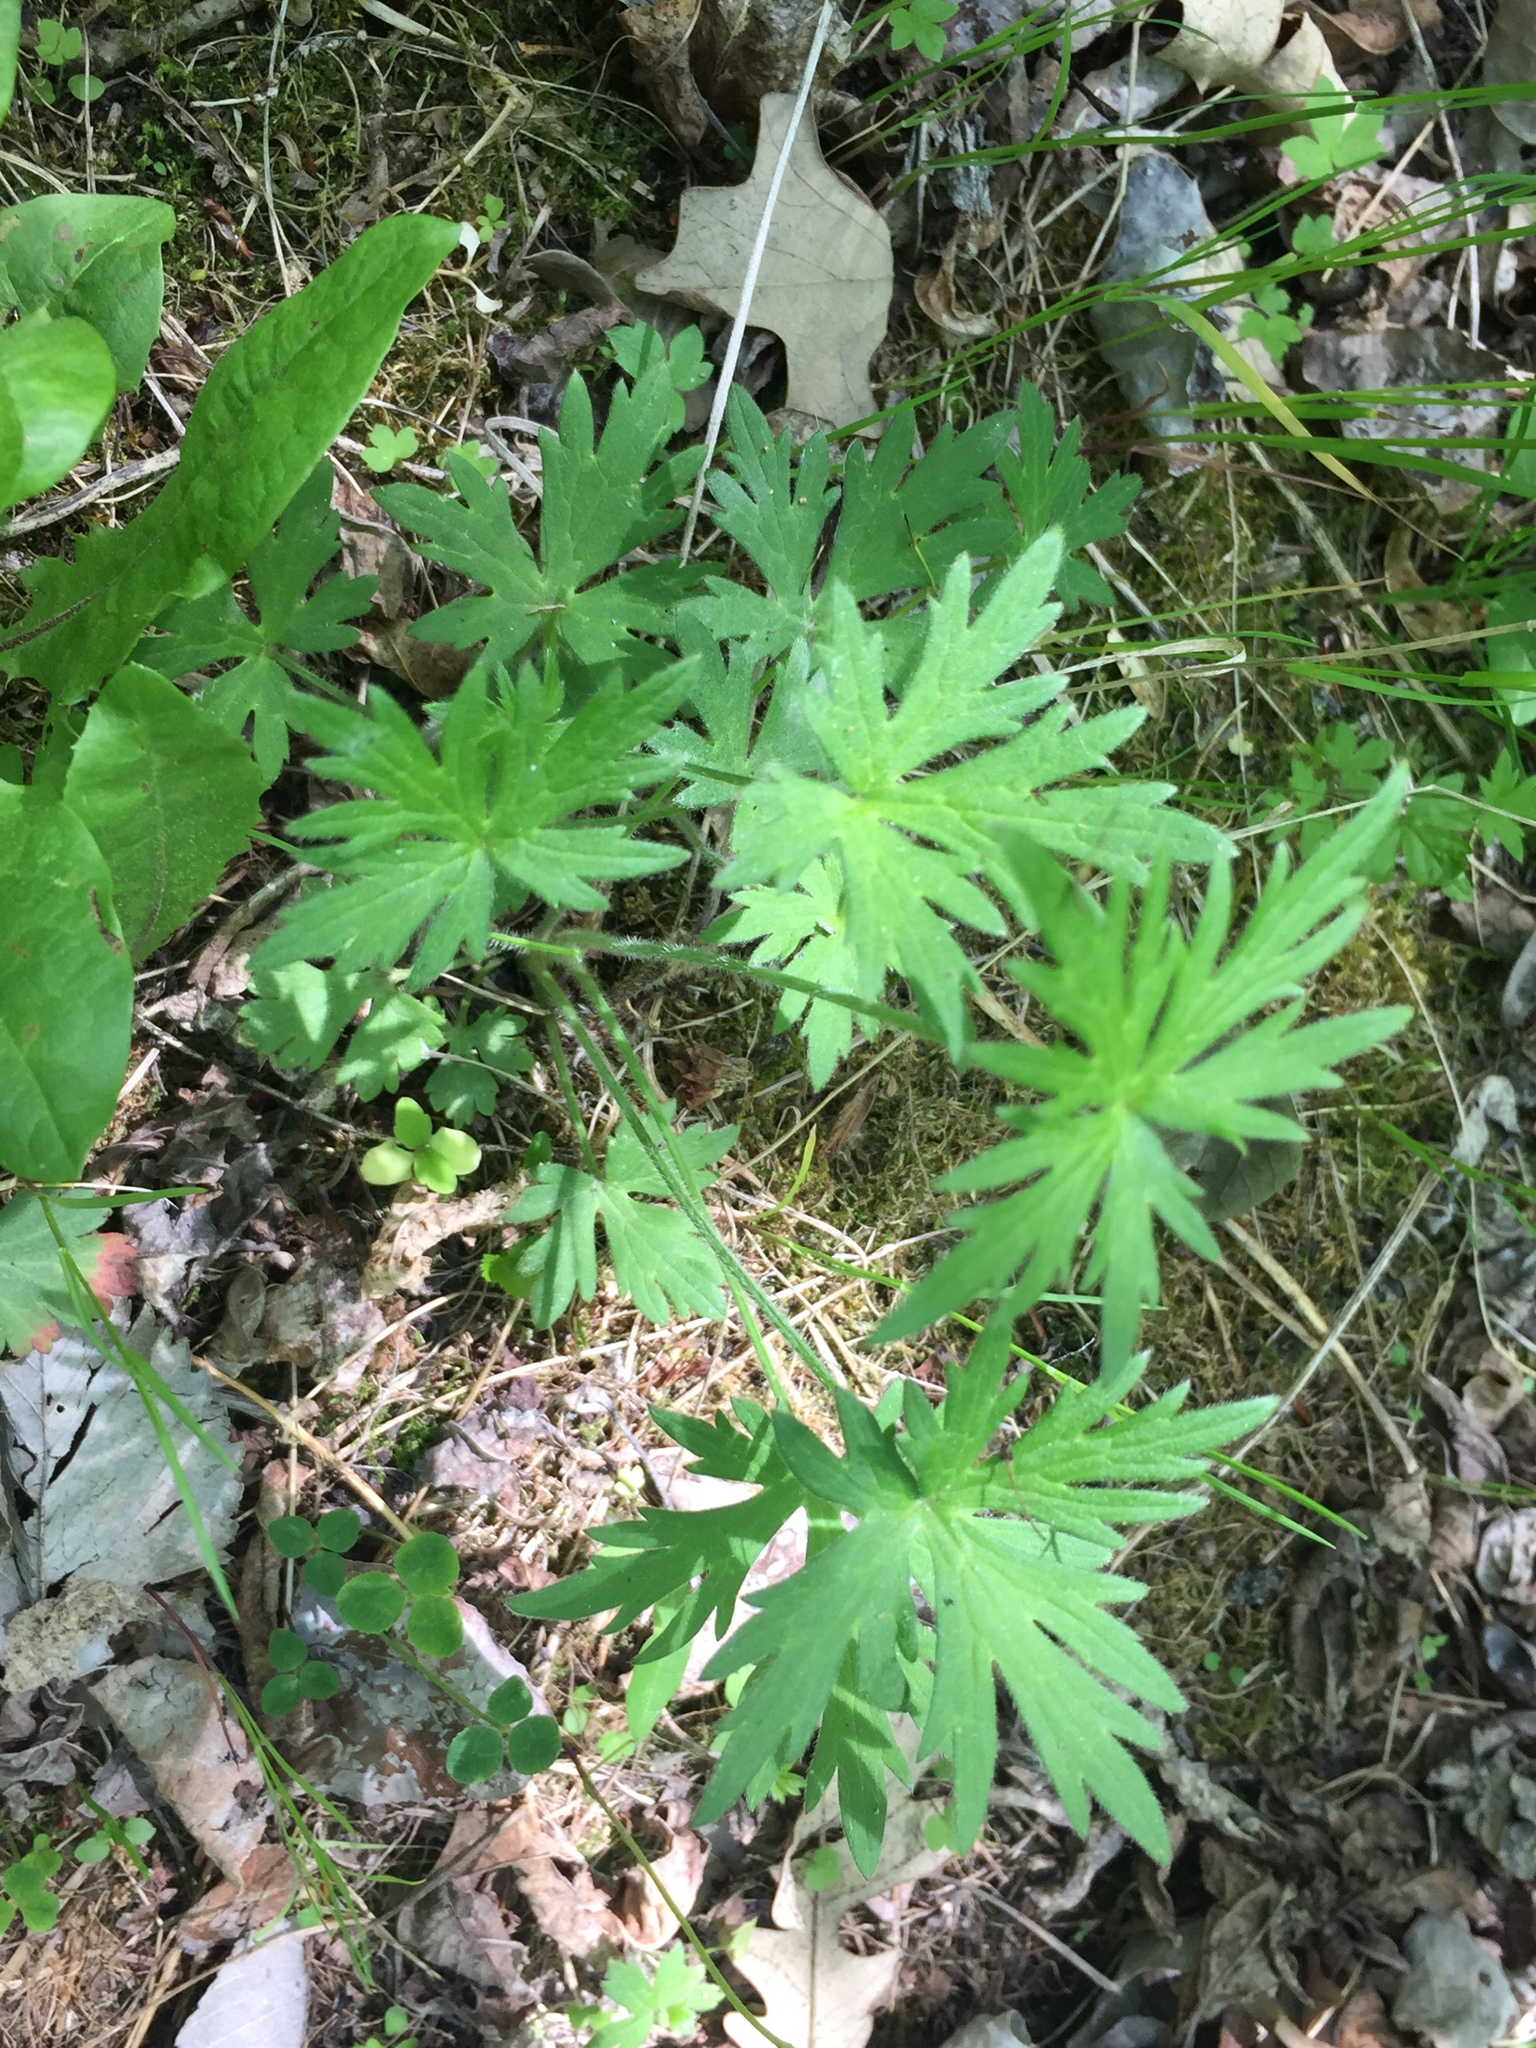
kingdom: Plantae
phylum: Tracheophyta
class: Magnoliopsida
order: Ranunculales
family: Ranunculaceae
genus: Ranunculus
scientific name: Ranunculus acris
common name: Meadow buttercup
